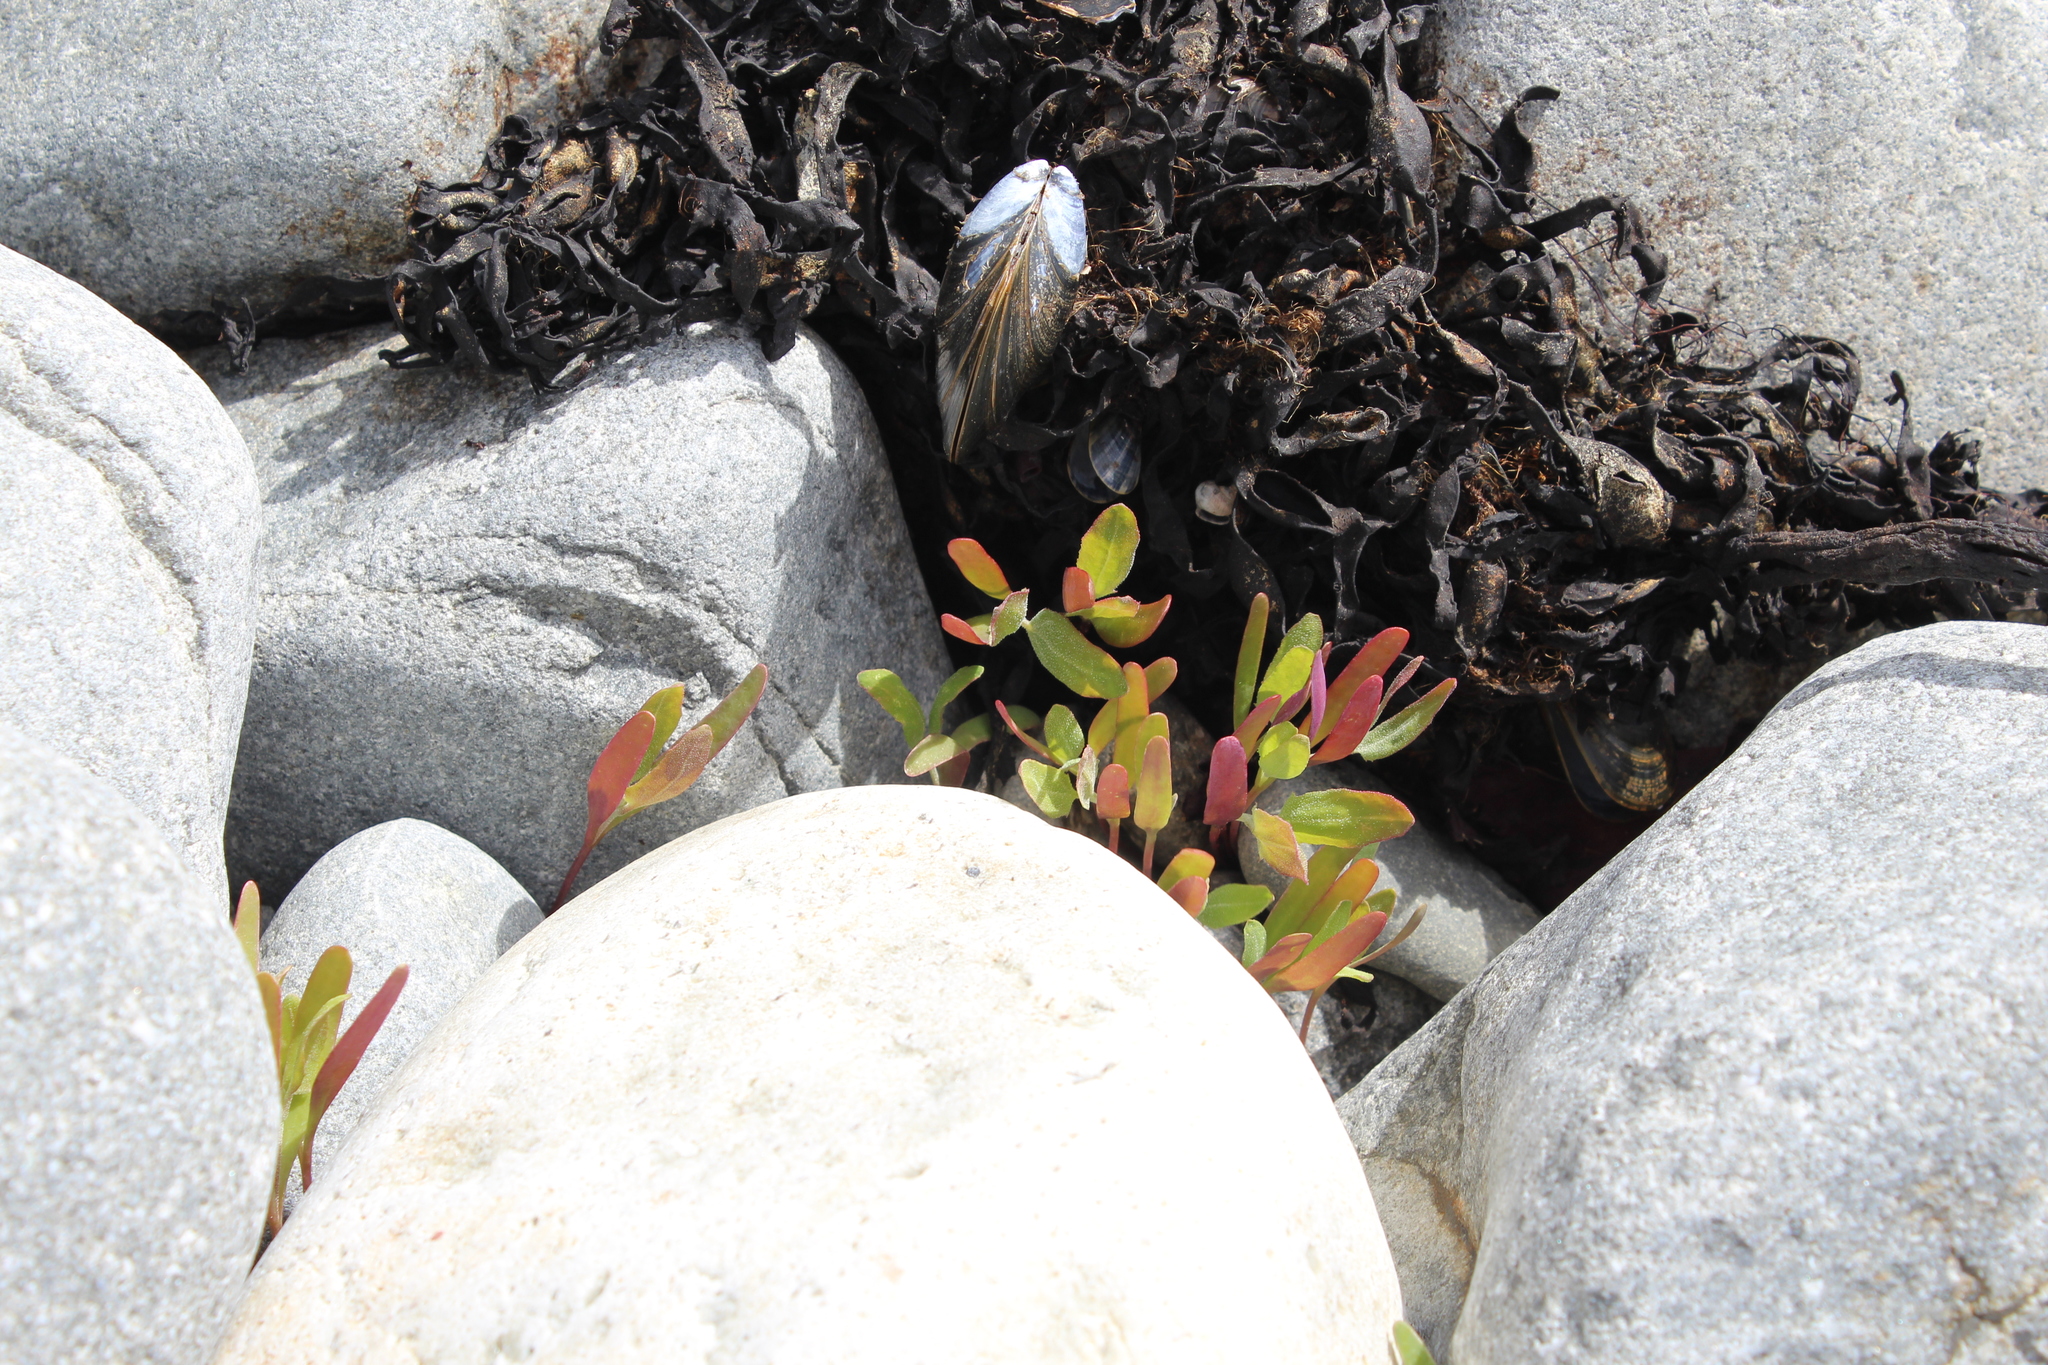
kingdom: Plantae
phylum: Tracheophyta
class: Magnoliopsida
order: Caryophyllales
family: Amaranthaceae
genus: Atriplex
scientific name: Atriplex nudicaulis
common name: Baltic orache
